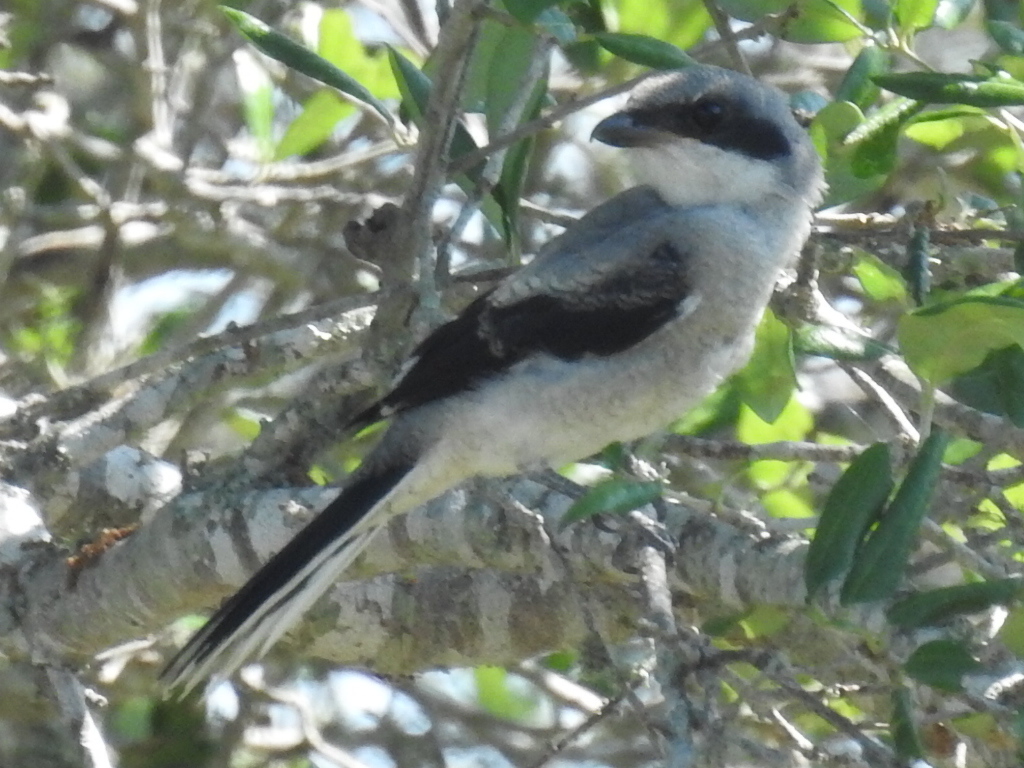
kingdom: Animalia
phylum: Chordata
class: Aves
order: Passeriformes
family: Laniidae
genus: Lanius
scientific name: Lanius ludovicianus
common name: Loggerhead shrike
